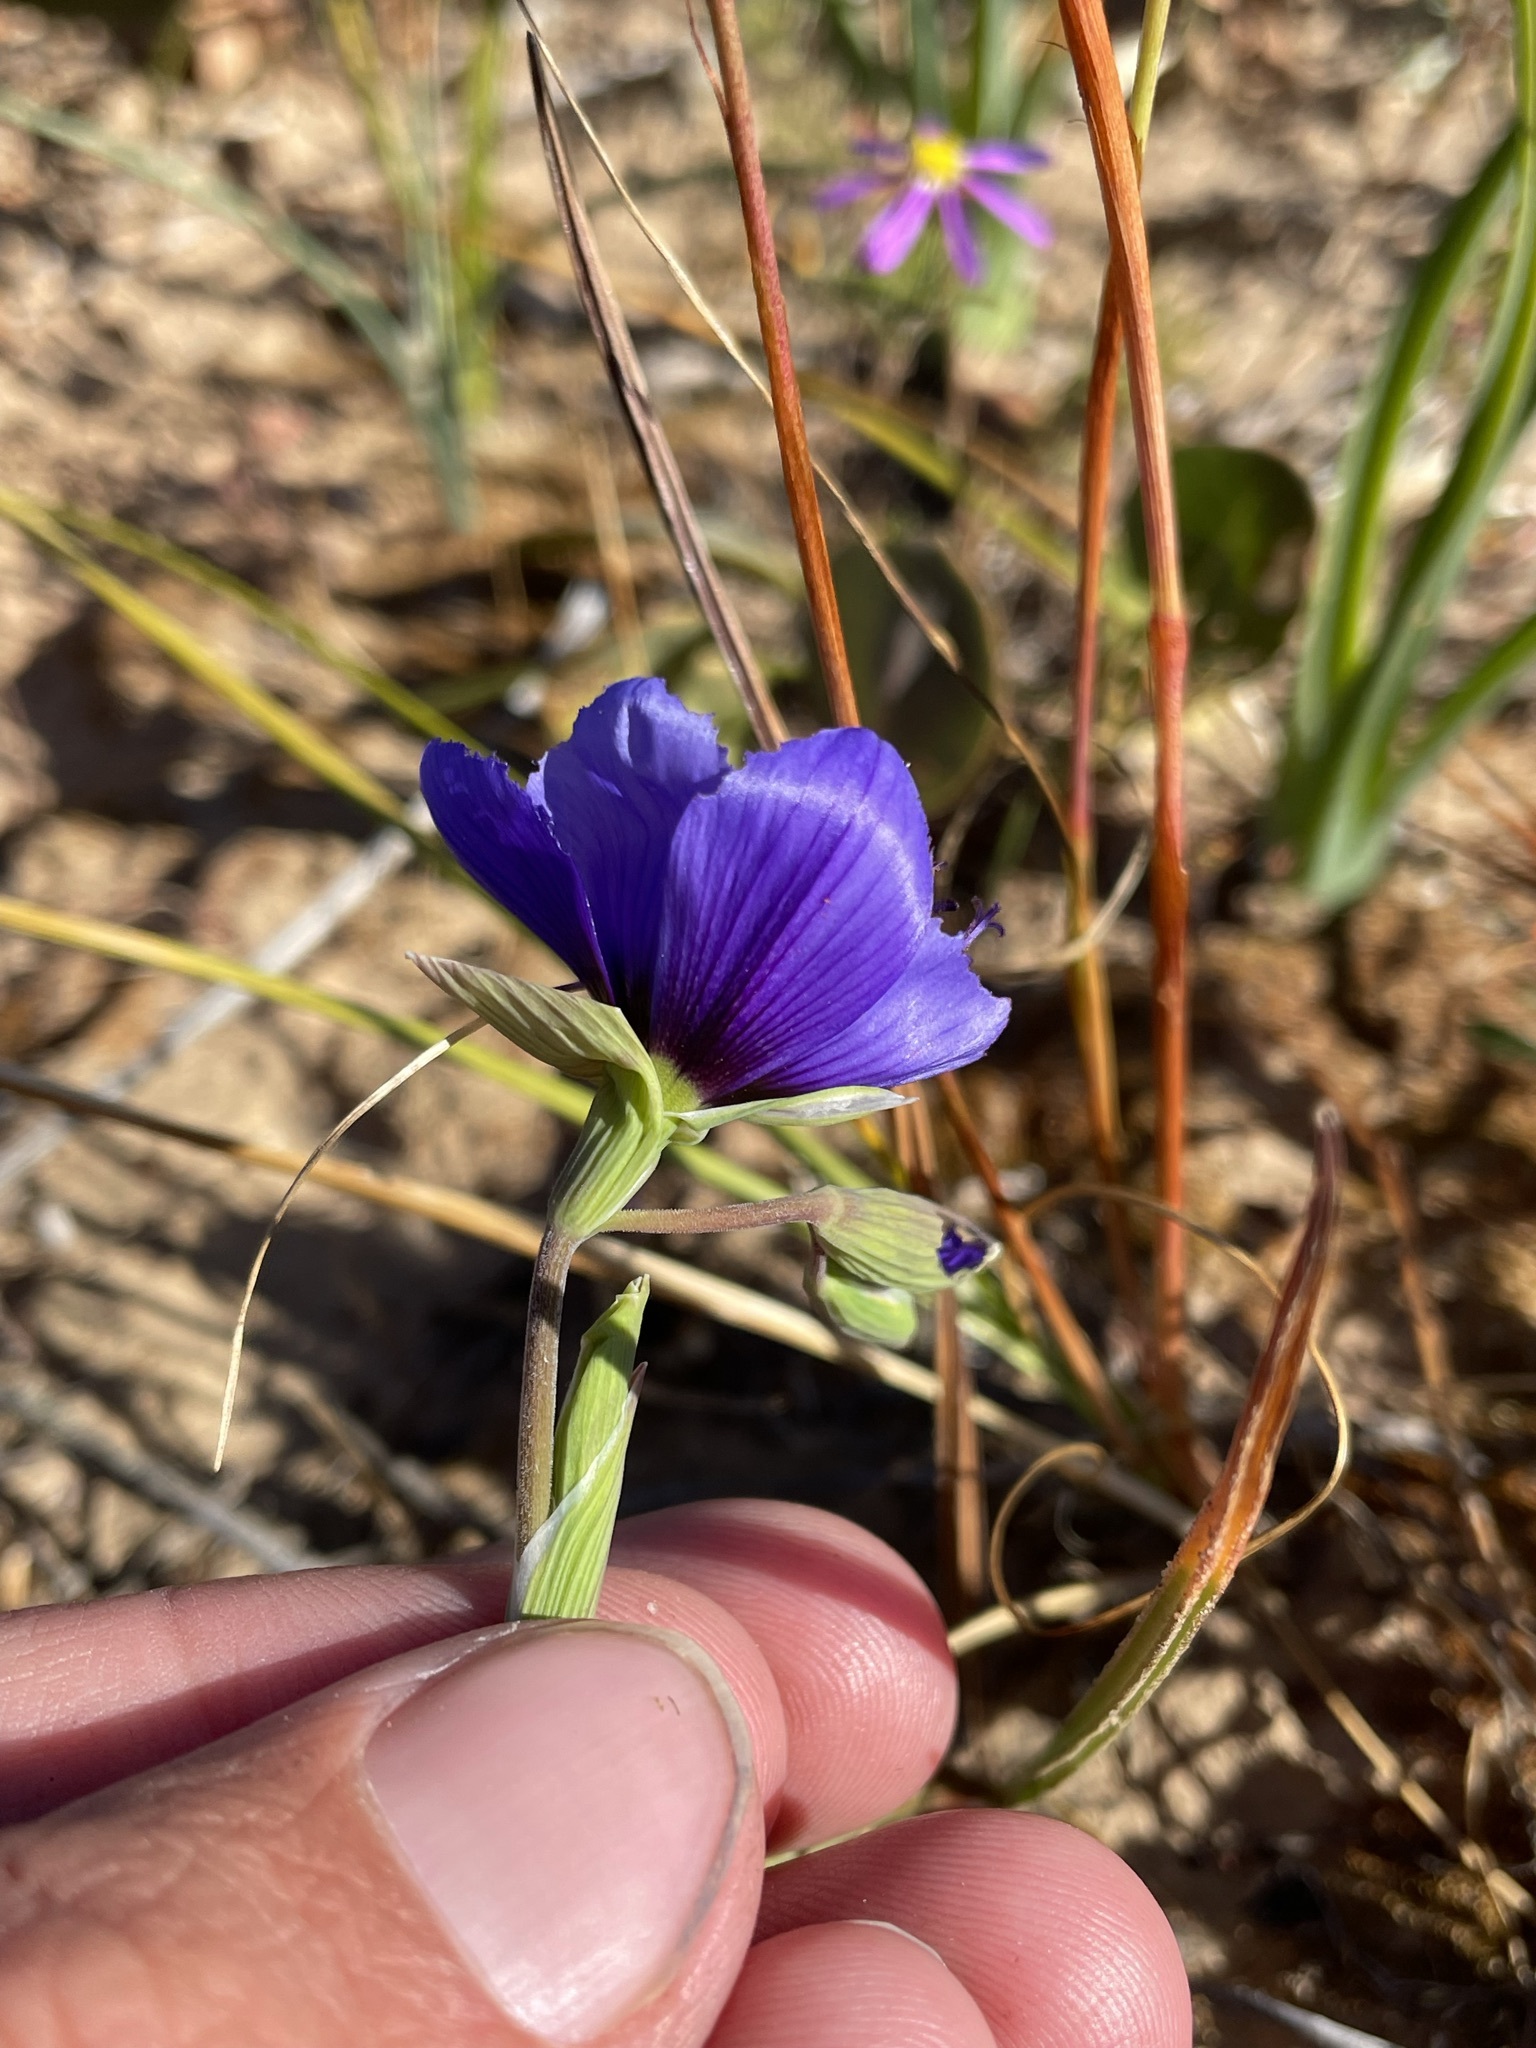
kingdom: Plantae
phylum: Tracheophyta
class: Liliopsida
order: Asparagales
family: Iridaceae
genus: Geissorhiza
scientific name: Geissorhiza splendidissima
